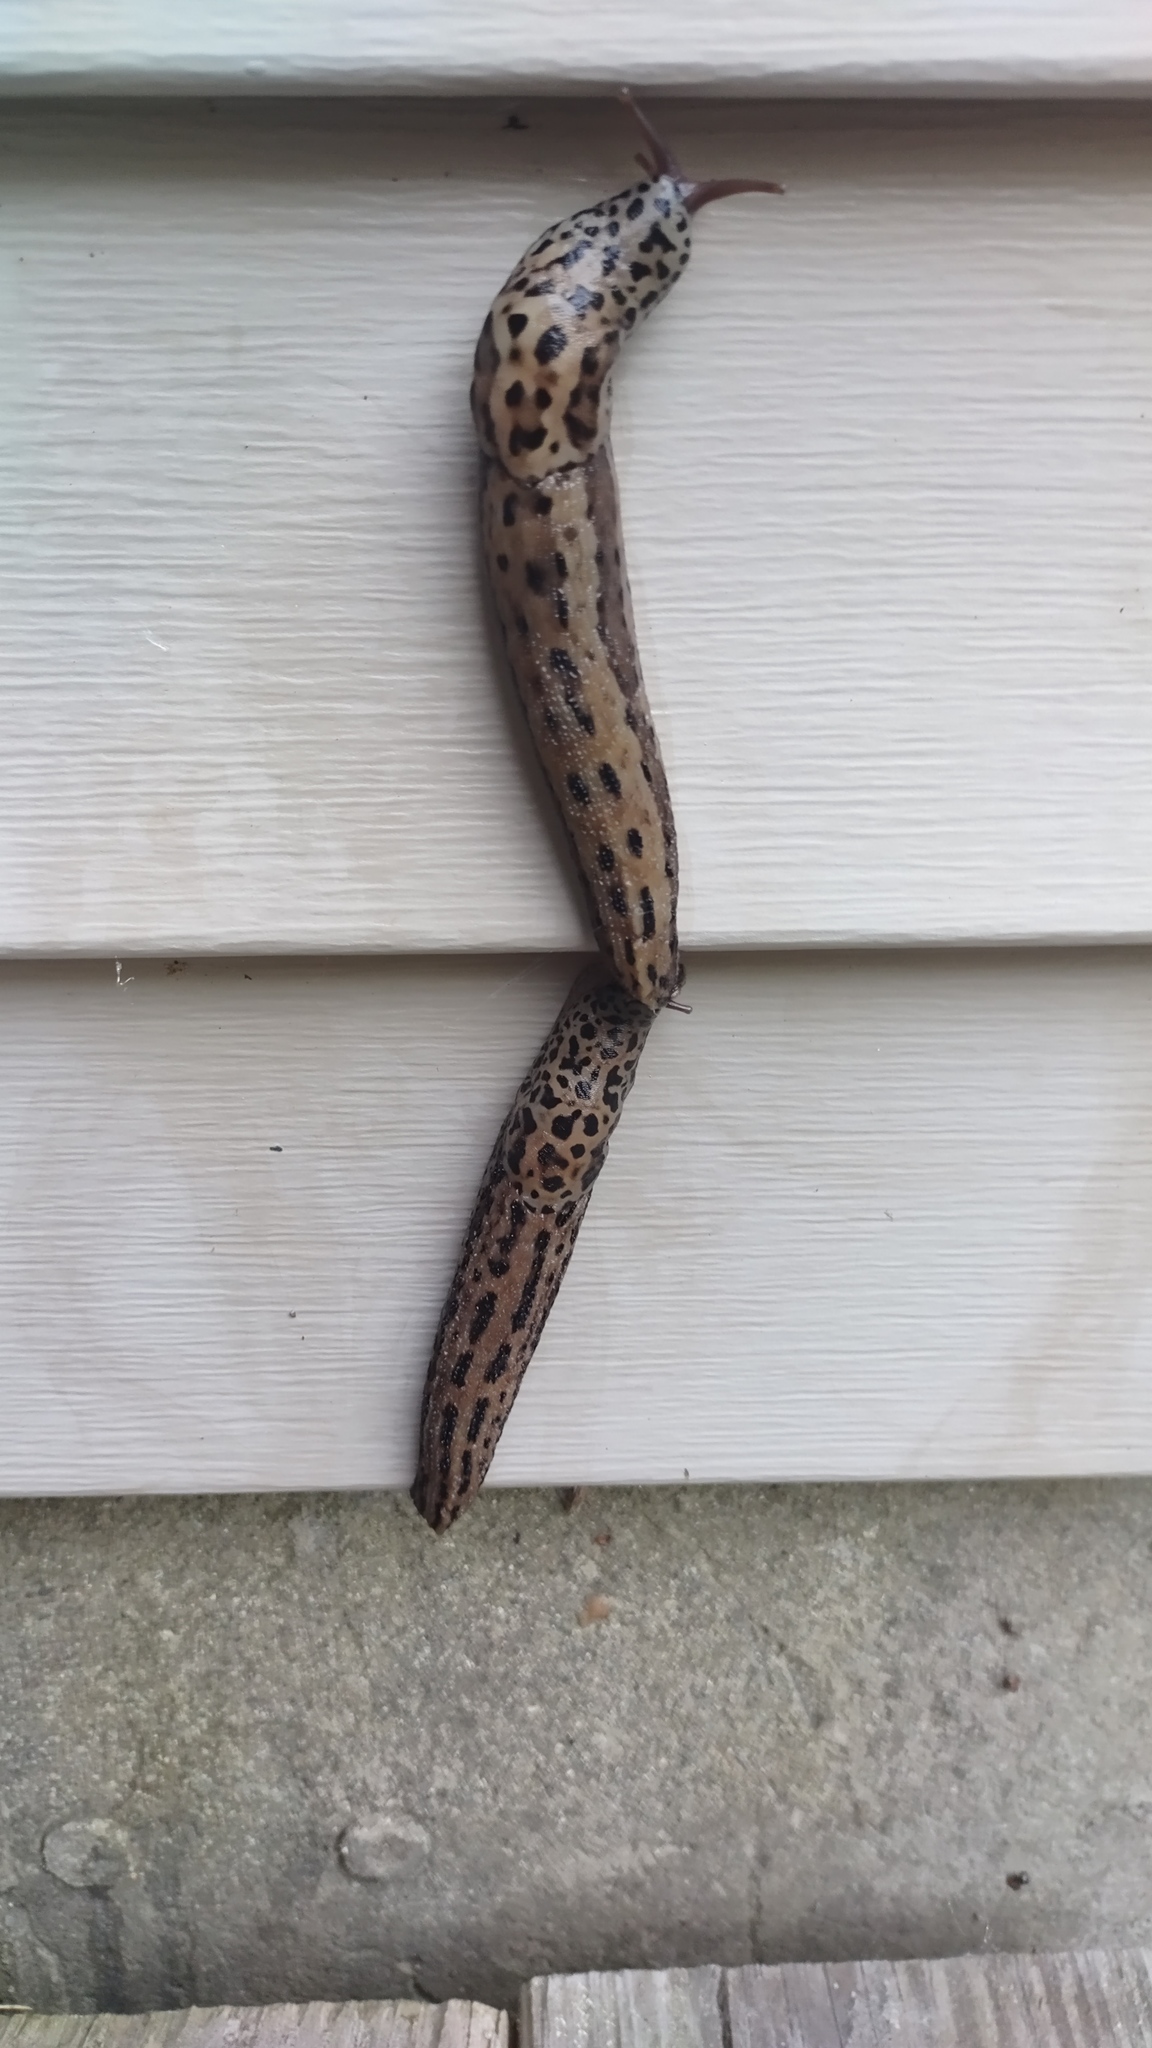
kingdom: Animalia
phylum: Mollusca
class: Gastropoda
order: Stylommatophora
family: Limacidae
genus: Limax
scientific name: Limax maximus
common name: Great grey slug
